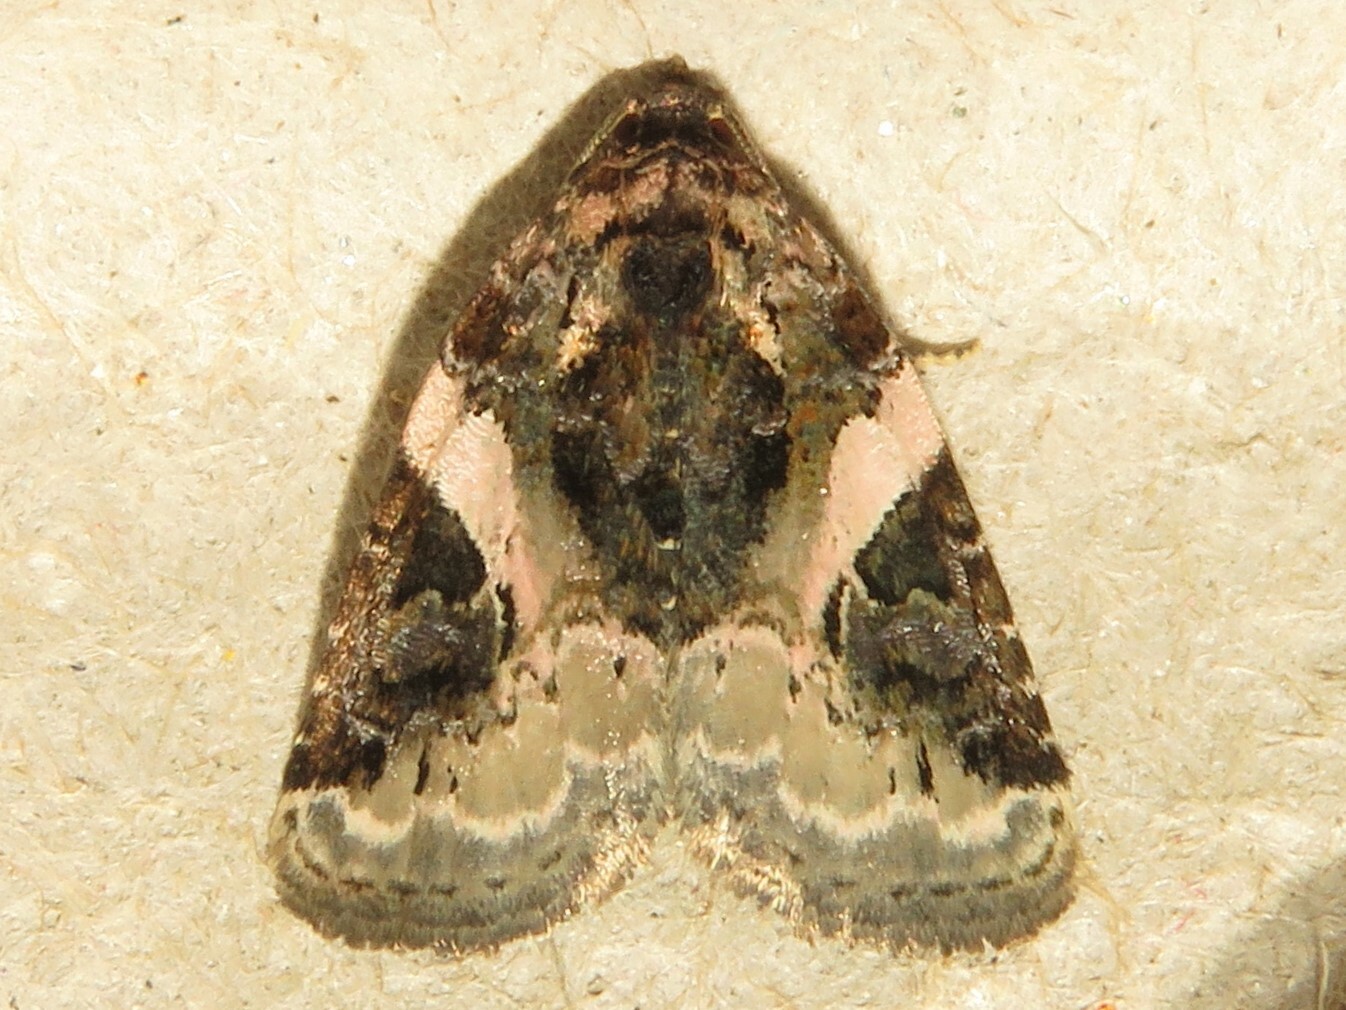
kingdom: Animalia
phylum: Arthropoda
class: Insecta
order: Lepidoptera
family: Noctuidae
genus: Pseudeustrotia
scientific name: Pseudeustrotia carneola
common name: Pink-barred lithacodia moth
